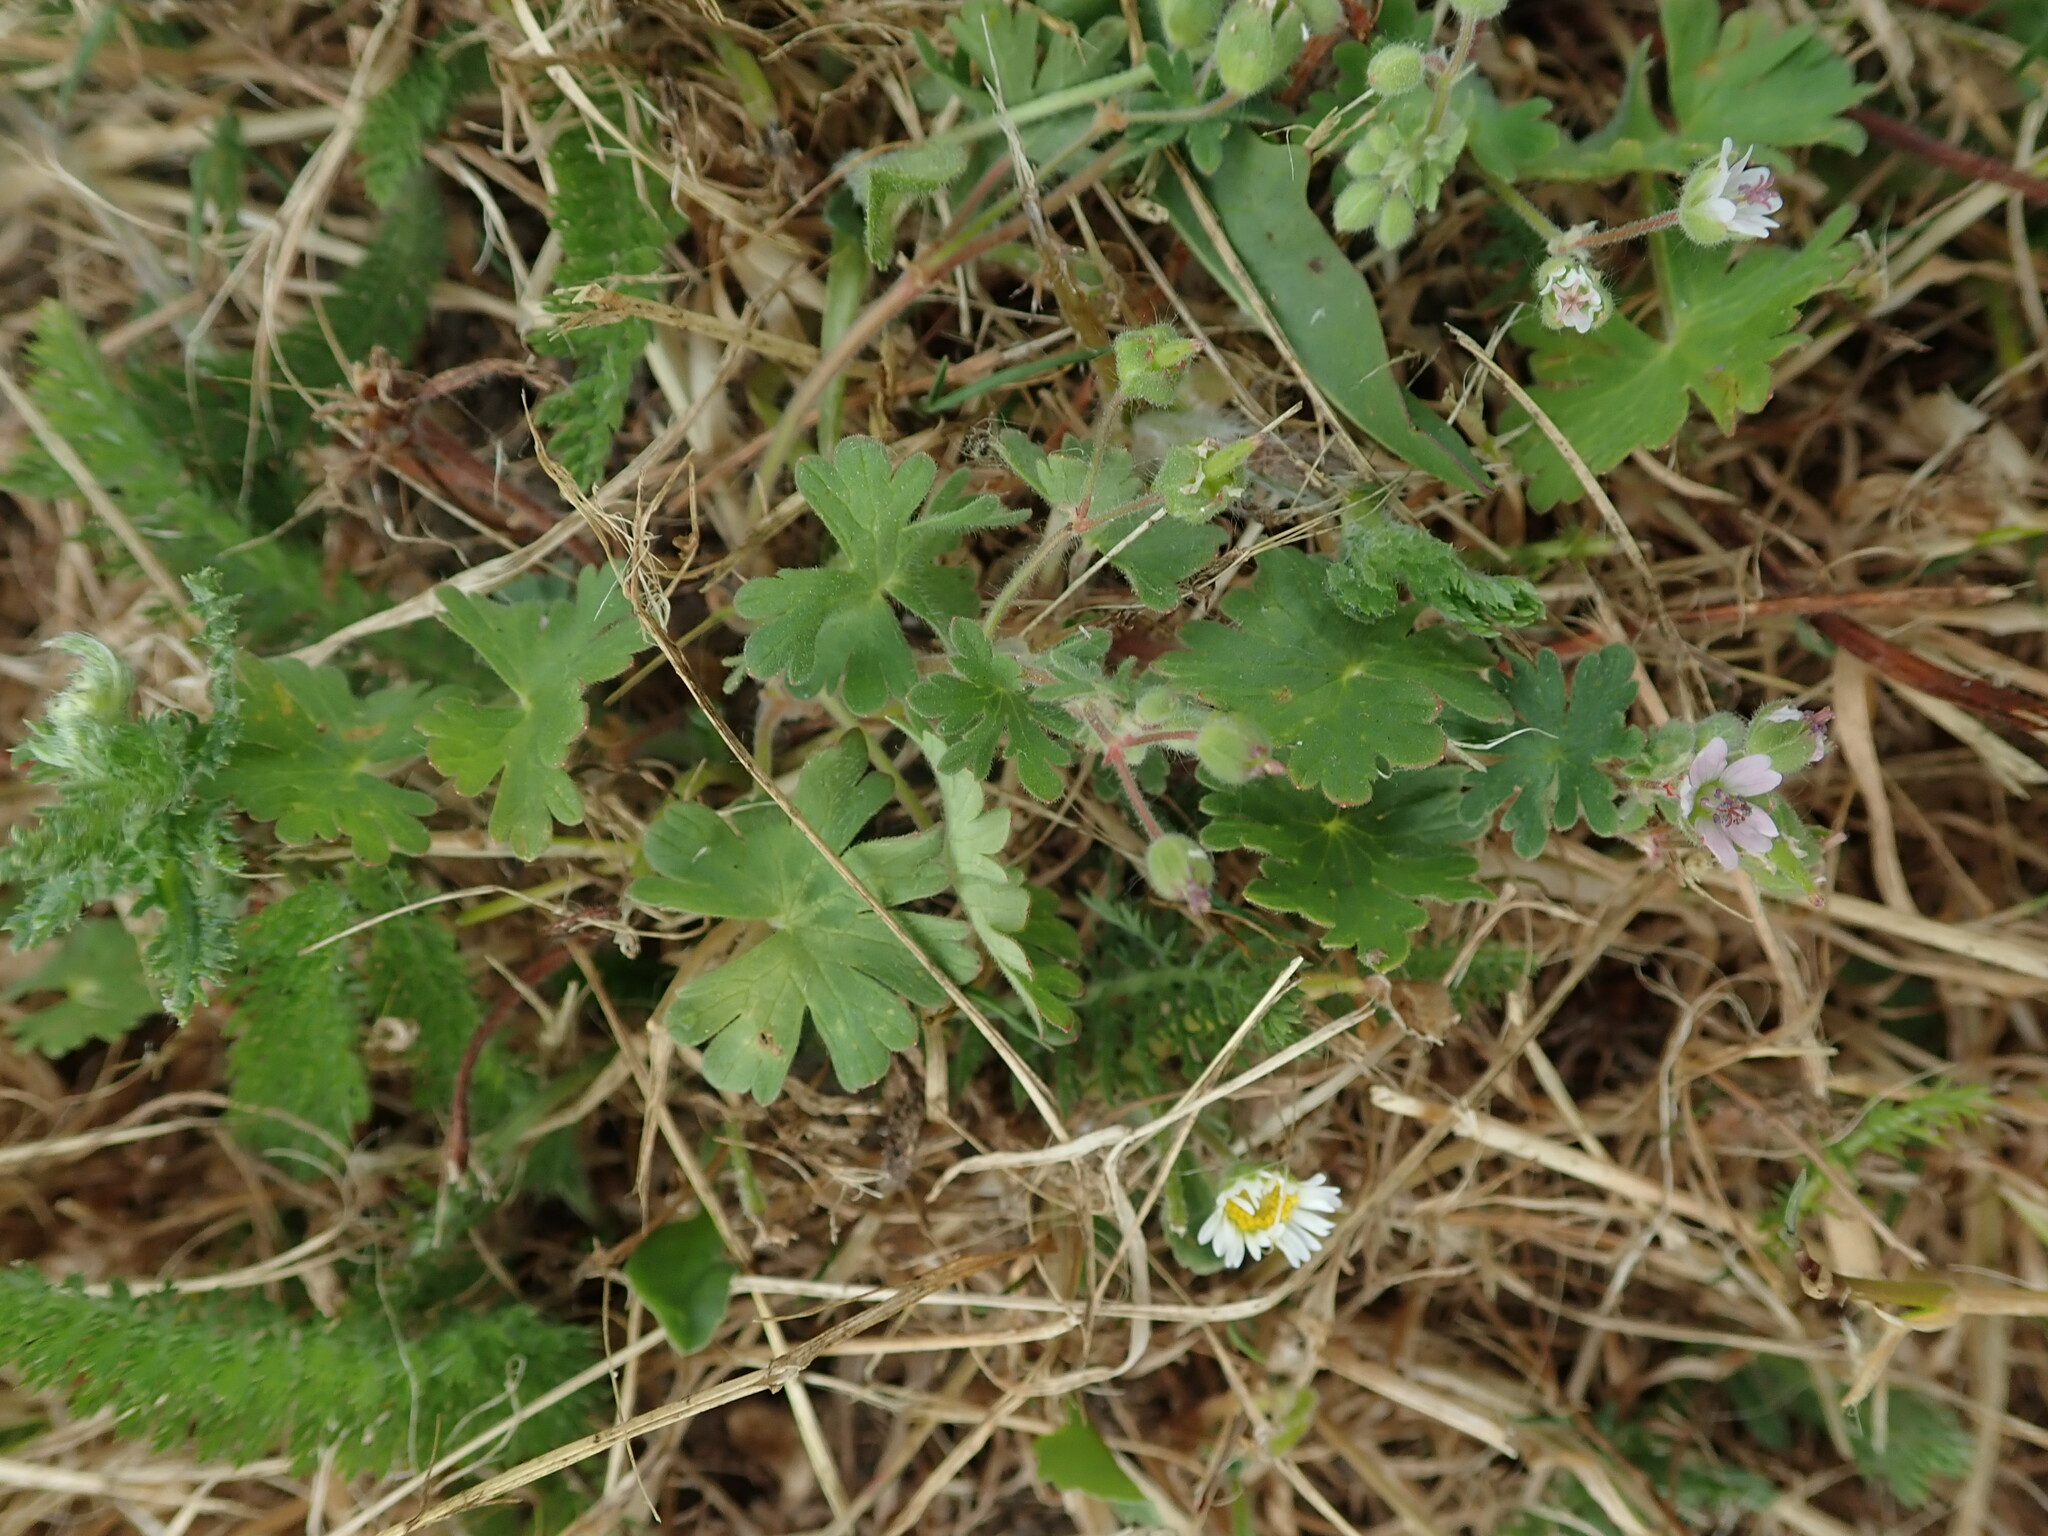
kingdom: Plantae
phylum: Tracheophyta
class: Magnoliopsida
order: Geraniales
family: Geraniaceae
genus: Geranium
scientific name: Geranium molle
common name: Dove's-foot crane's-bill
